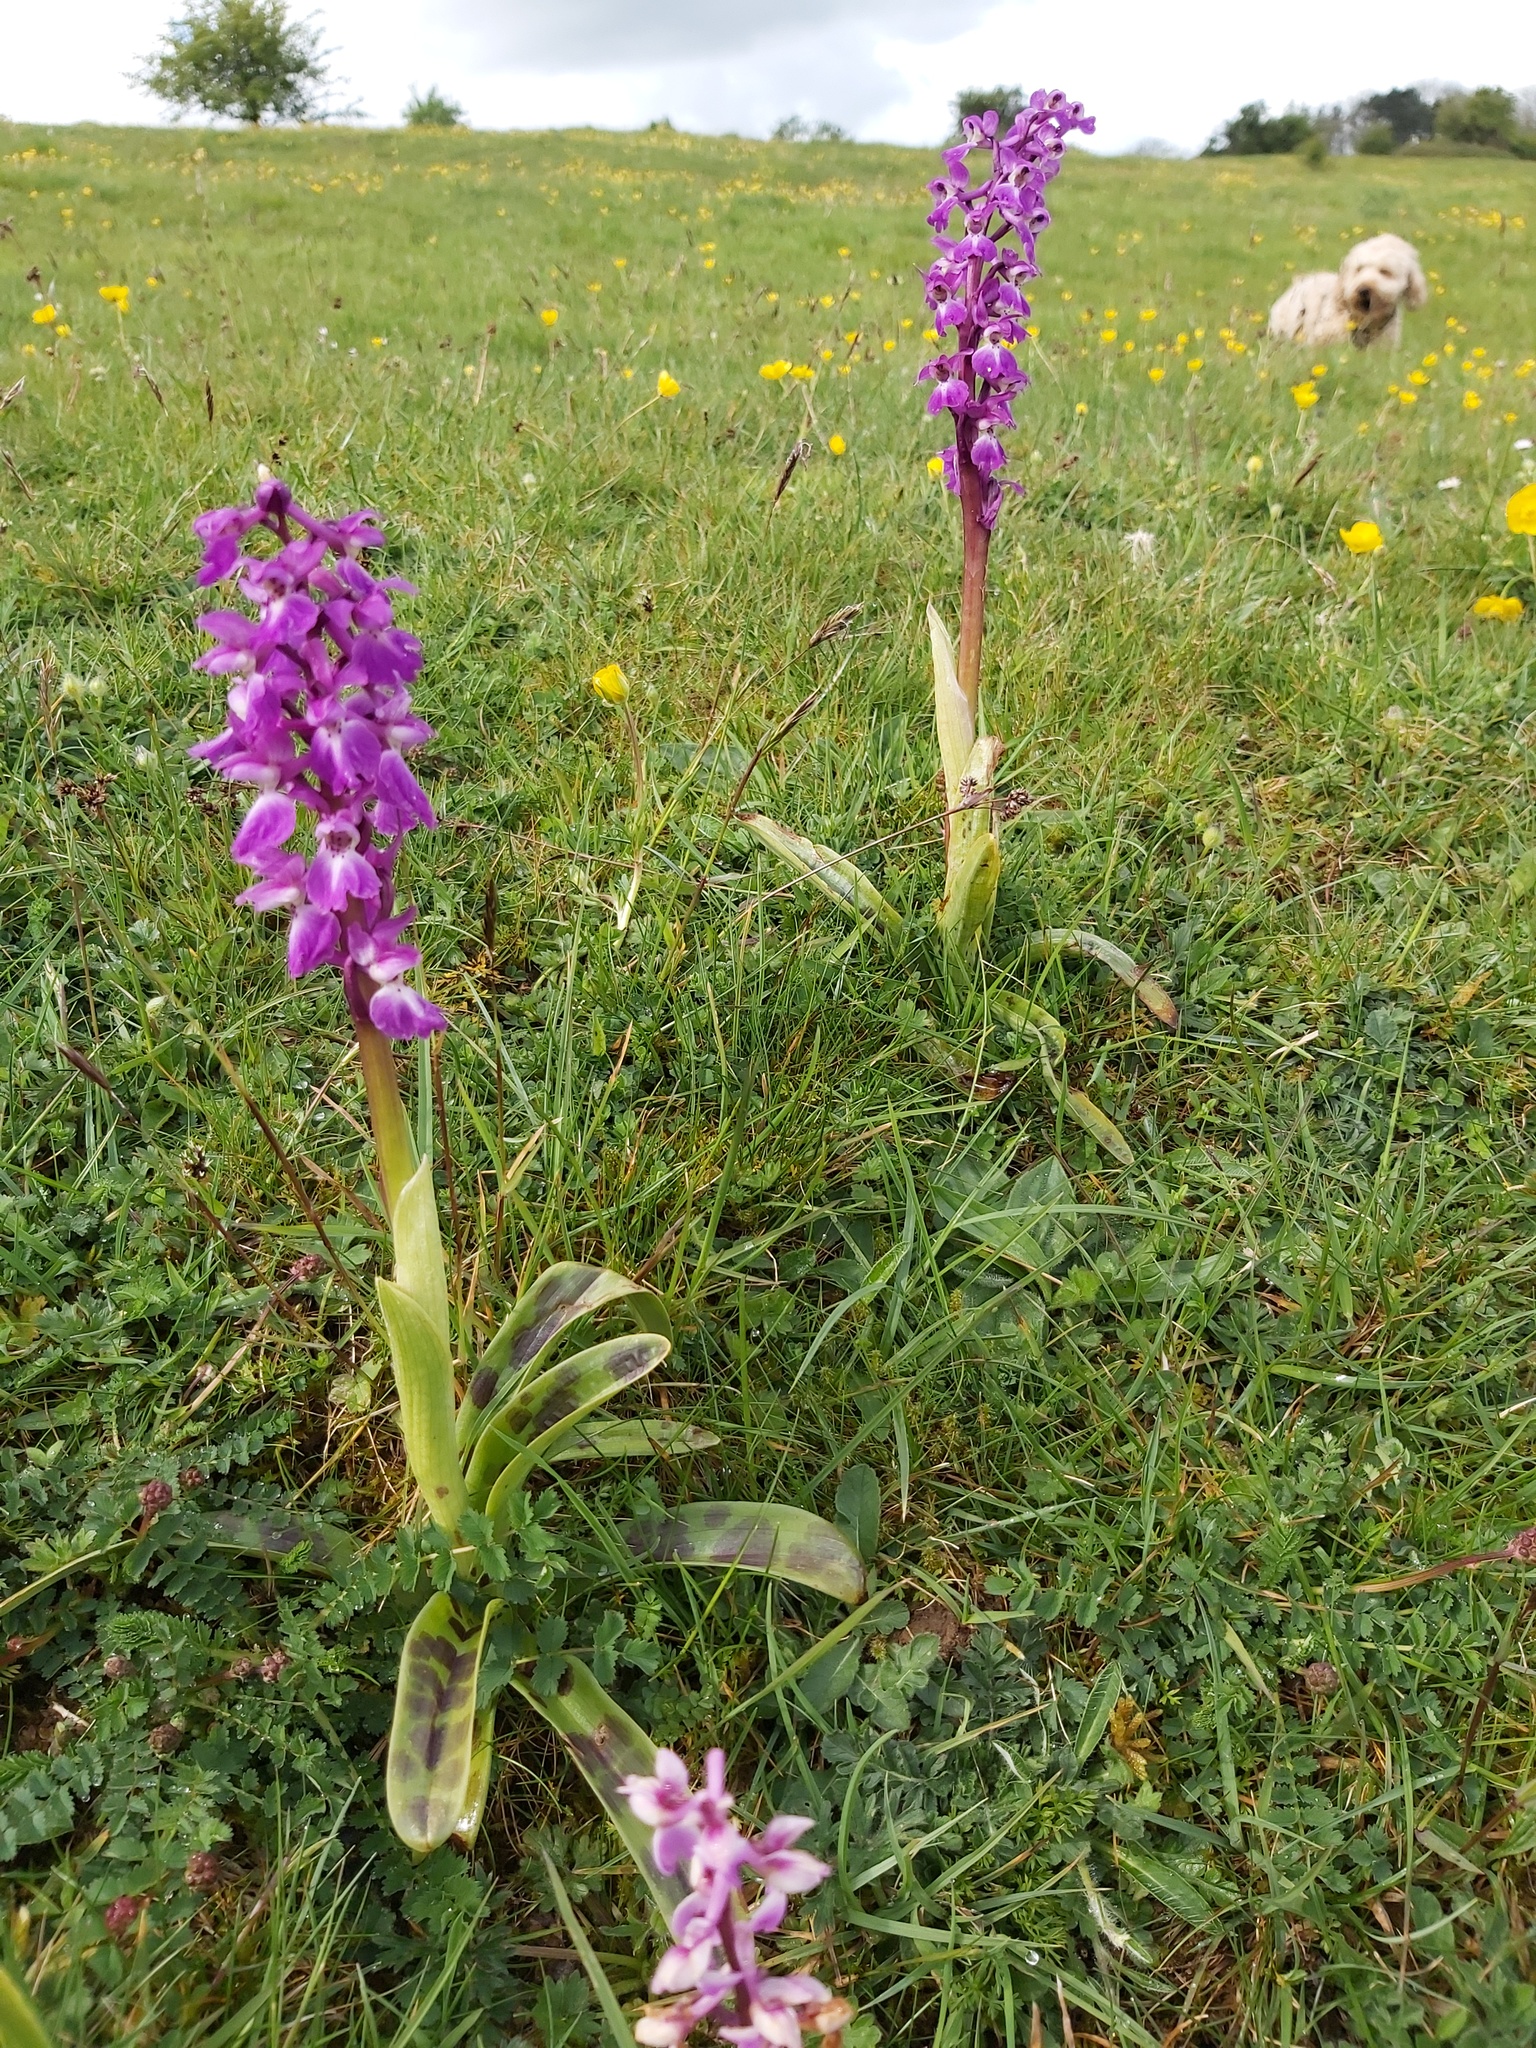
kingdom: Plantae
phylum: Tracheophyta
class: Liliopsida
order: Asparagales
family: Orchidaceae
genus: Orchis
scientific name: Orchis mascula
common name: Early-purple orchid
